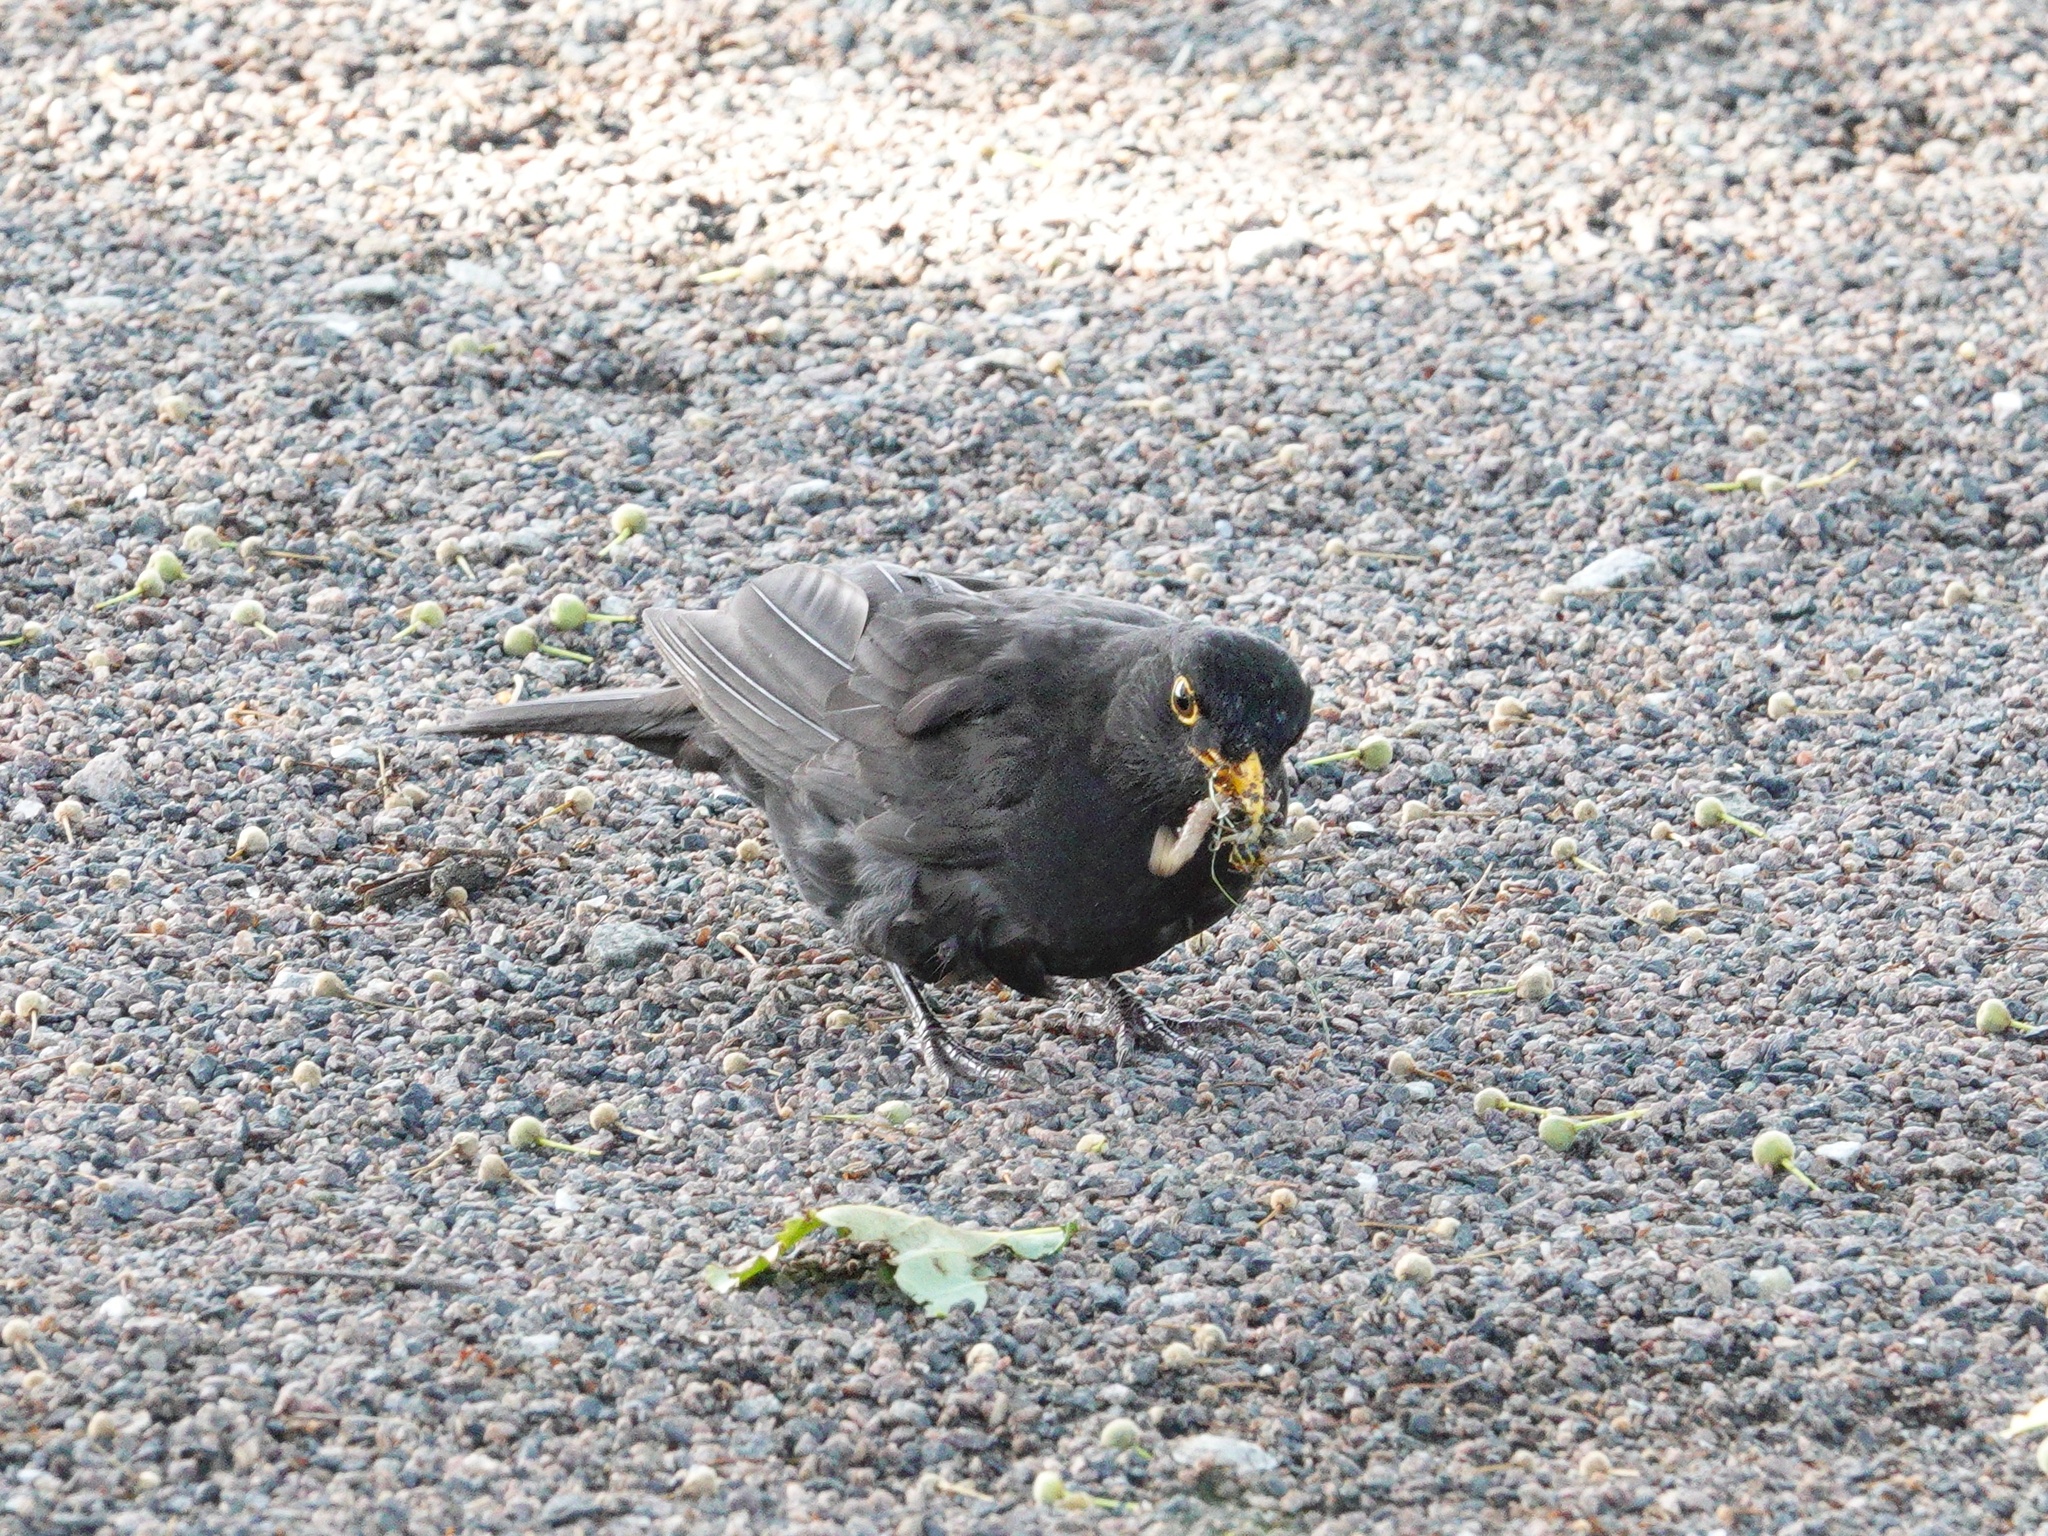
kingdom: Animalia
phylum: Chordata
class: Aves
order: Passeriformes
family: Turdidae
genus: Turdus
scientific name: Turdus merula
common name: Common blackbird
